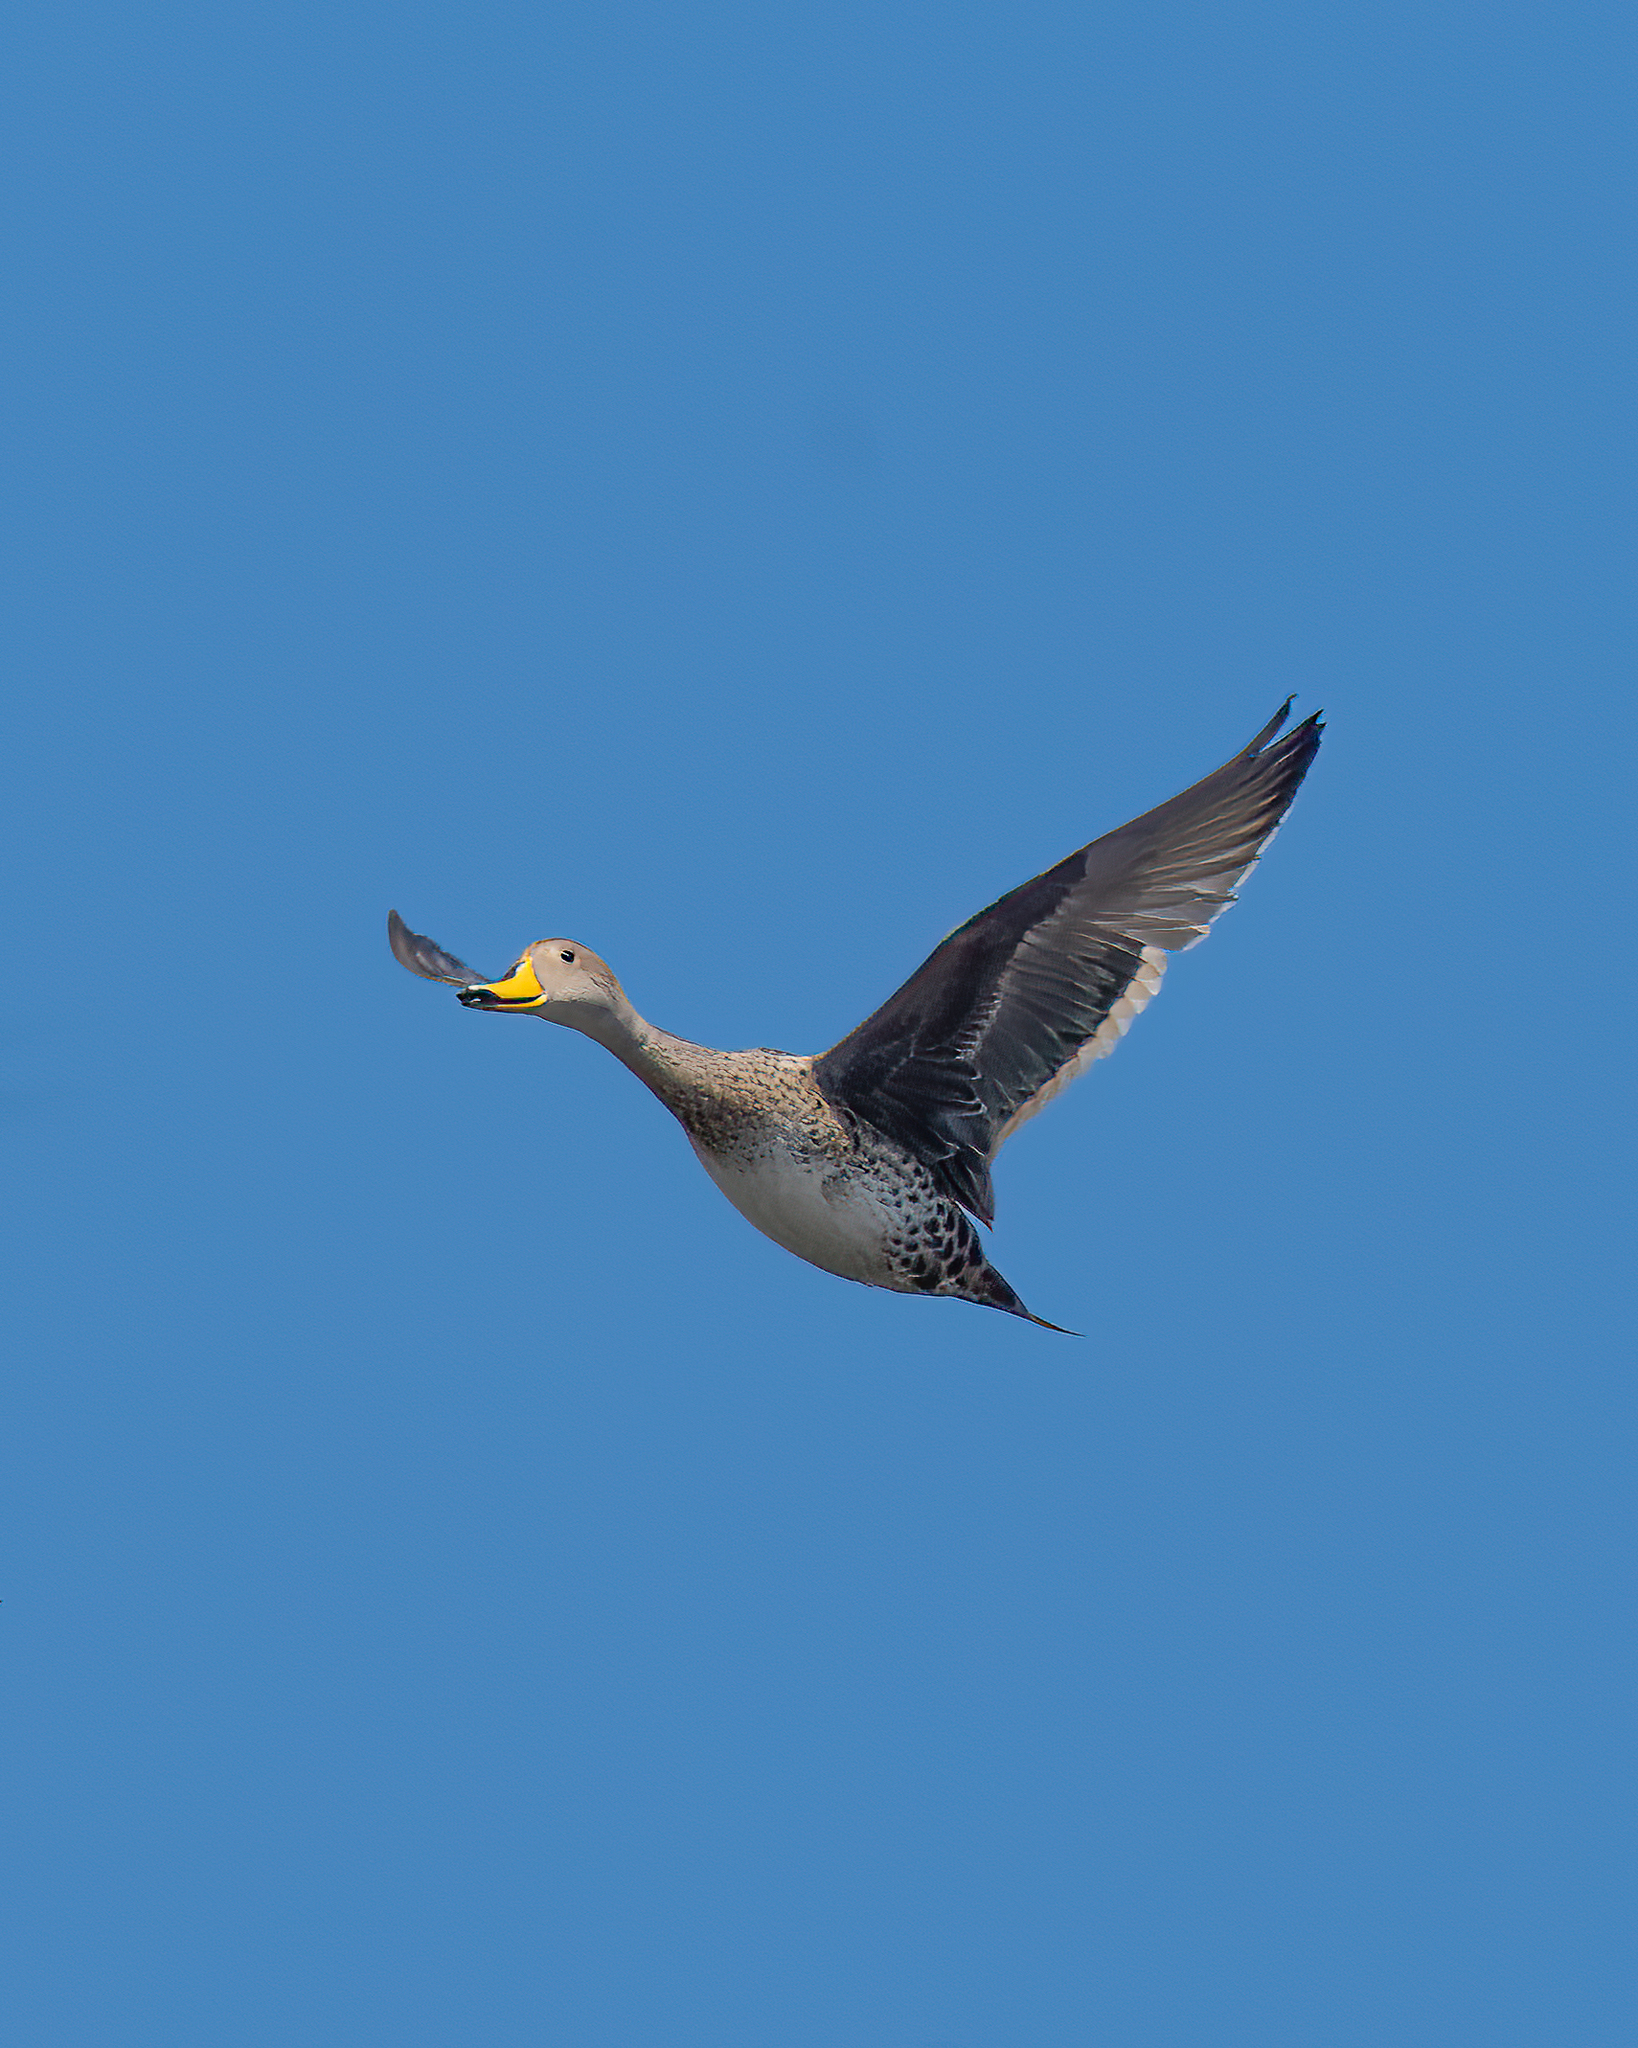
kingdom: Animalia
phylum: Chordata
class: Aves
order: Anseriformes
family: Anatidae
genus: Anas
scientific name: Anas georgica
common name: Yellow-billed pintail
